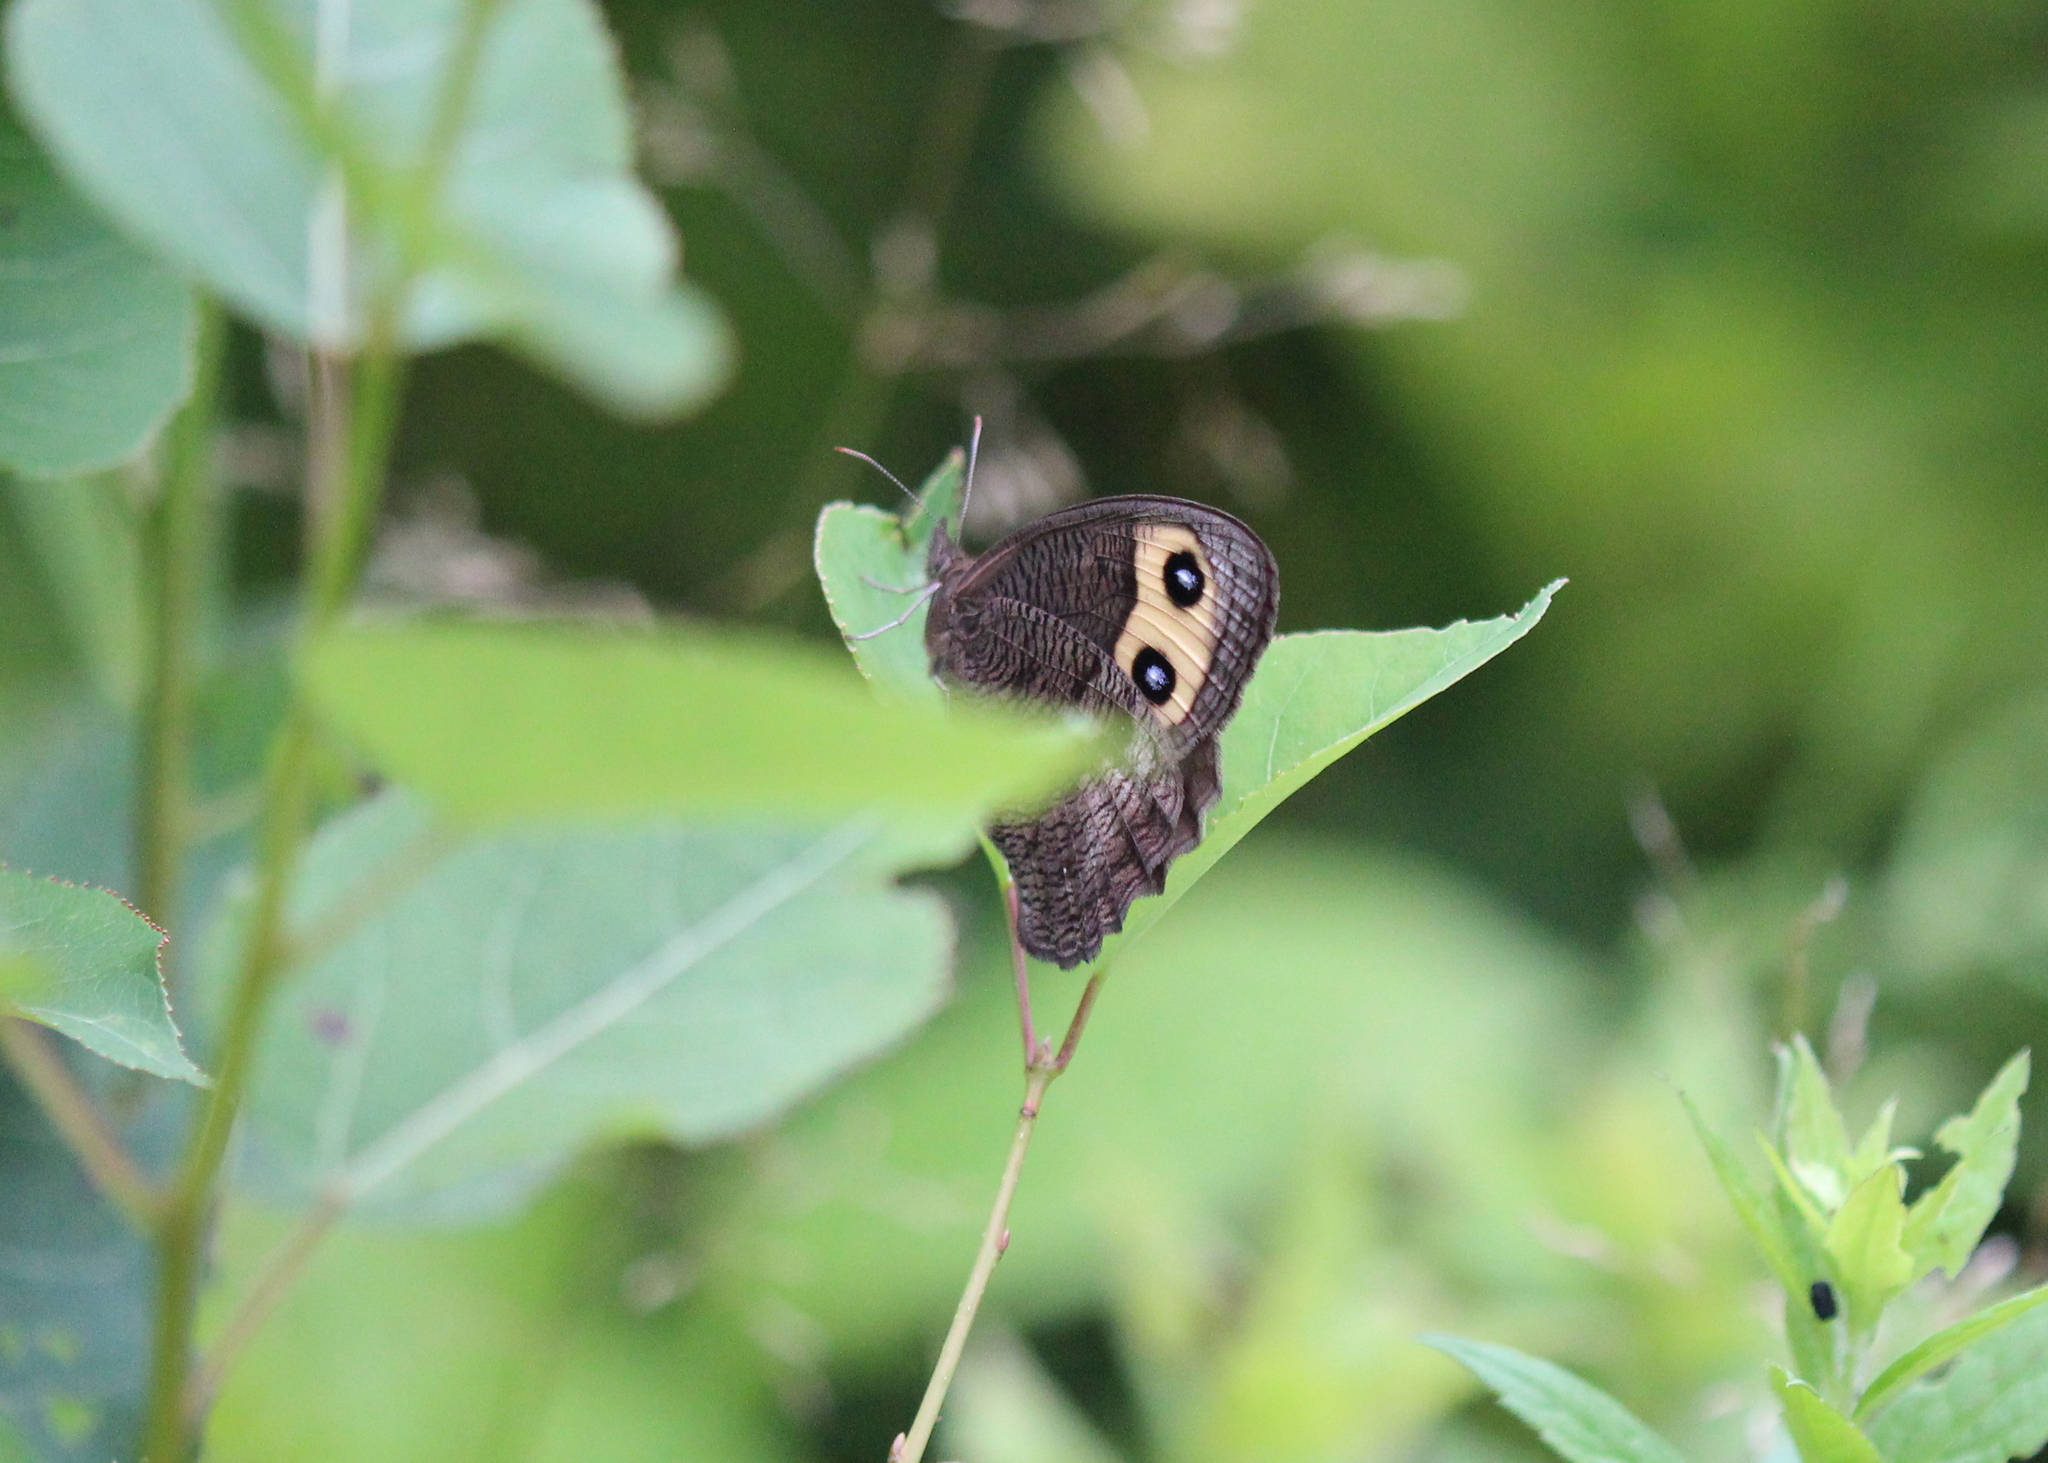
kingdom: Animalia
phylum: Arthropoda
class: Insecta
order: Lepidoptera
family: Nymphalidae
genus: Cercyonis
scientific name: Cercyonis pegala
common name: Common wood-nymph
